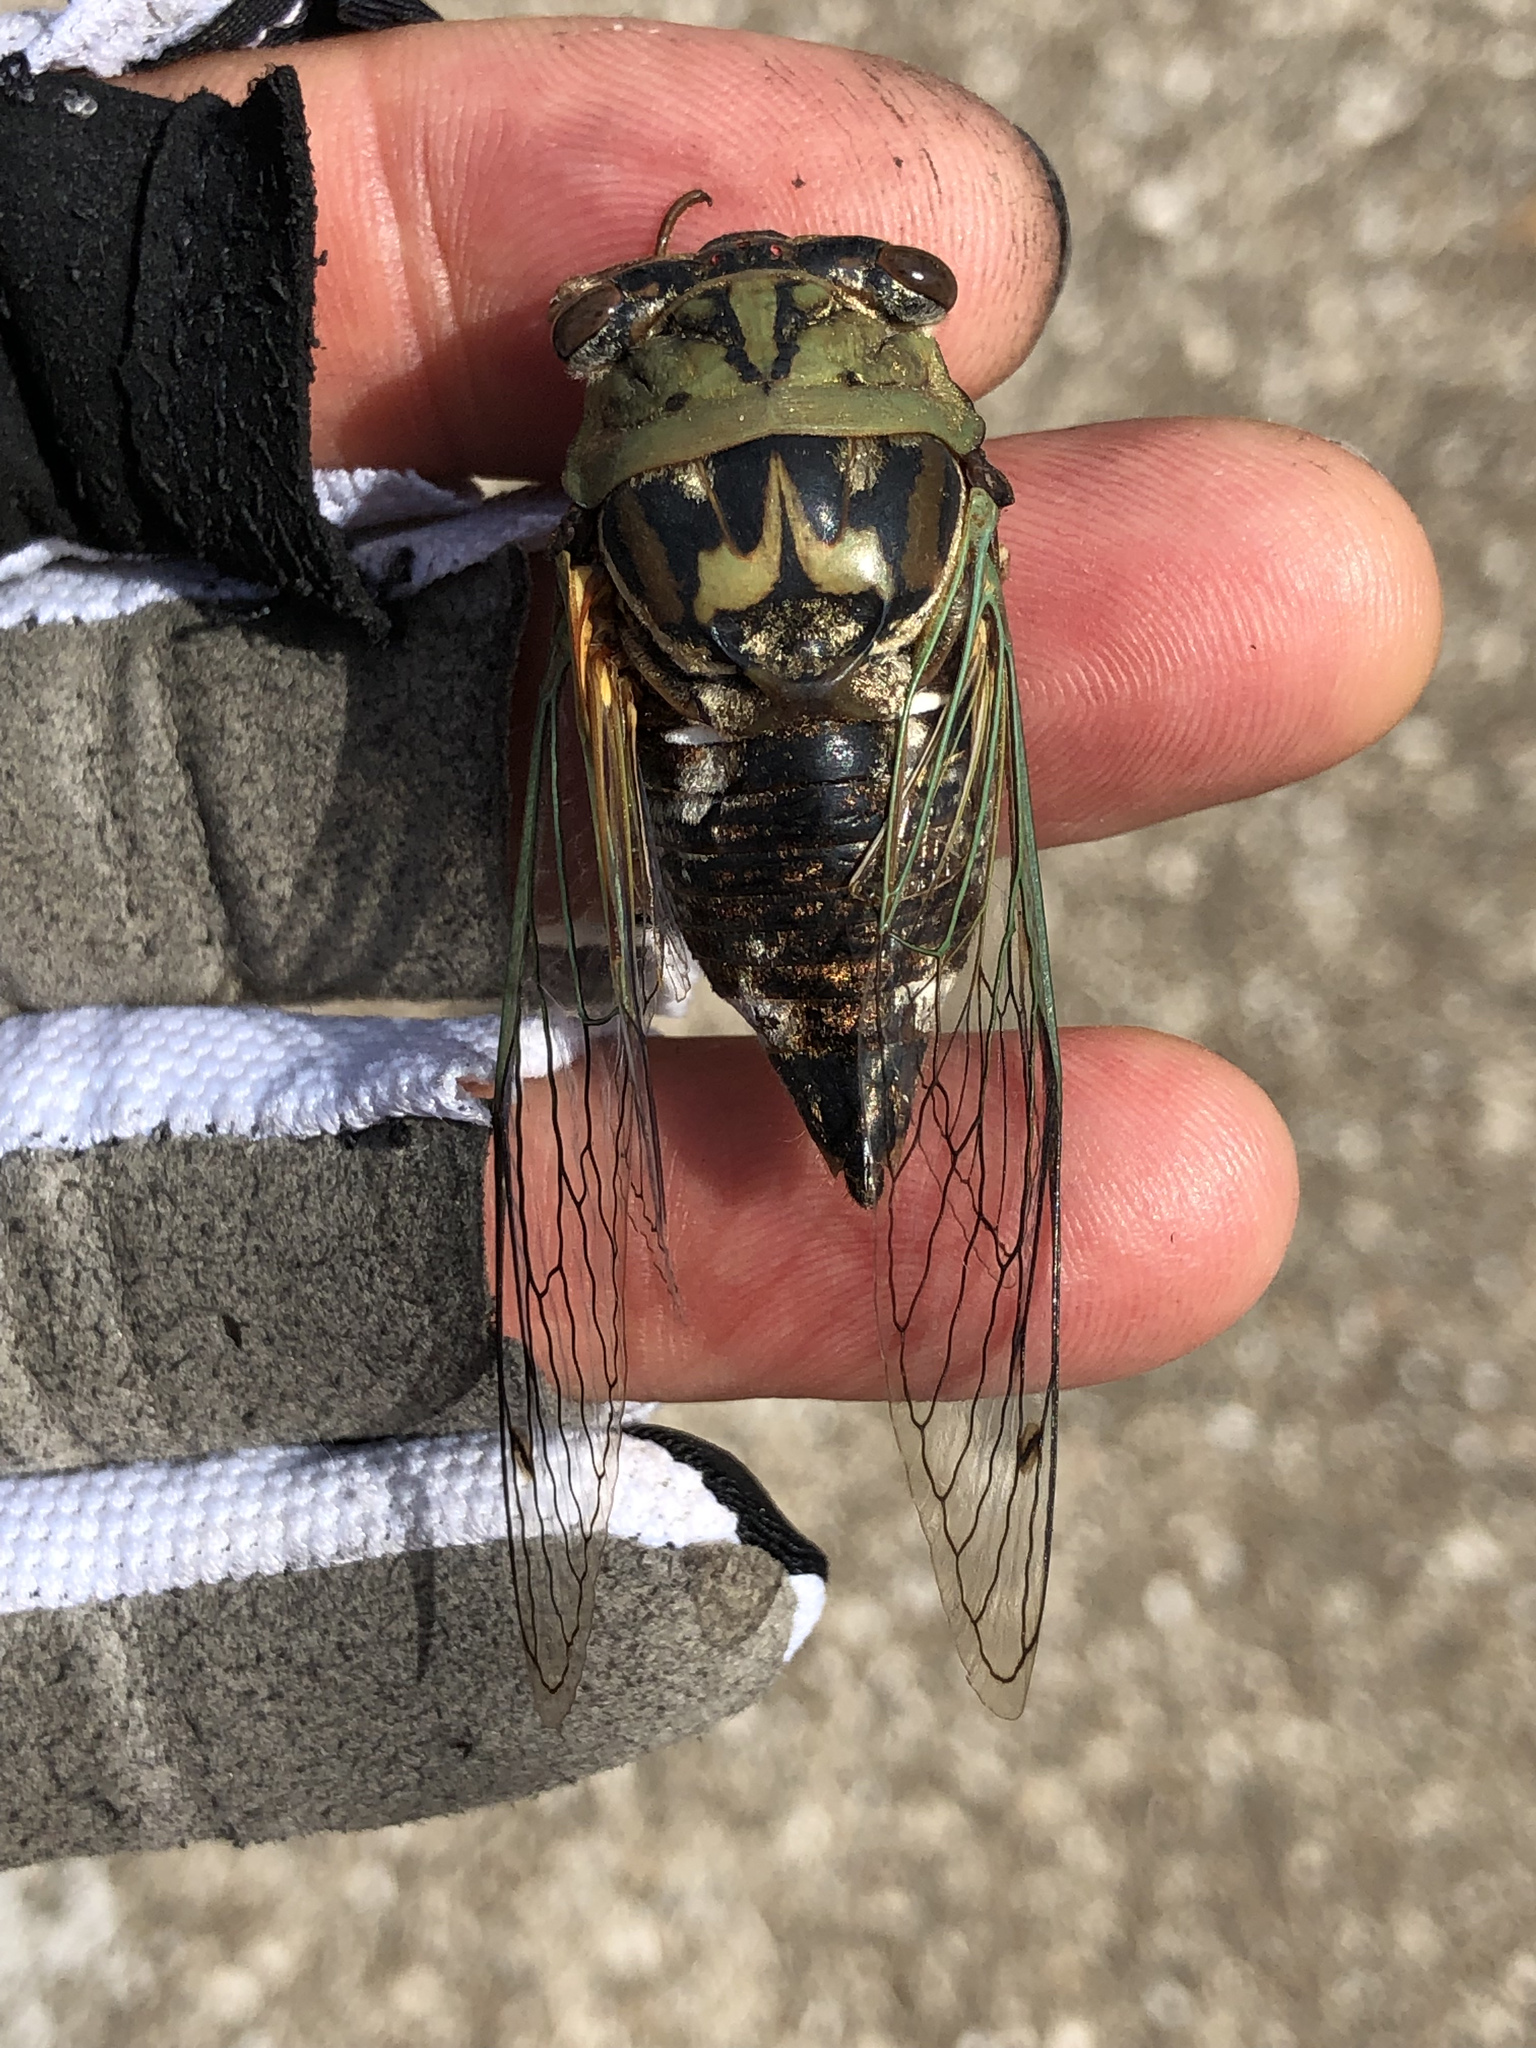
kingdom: Animalia
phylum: Arthropoda
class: Insecta
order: Hemiptera
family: Cicadidae
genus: Megatibicen
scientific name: Megatibicen resh
